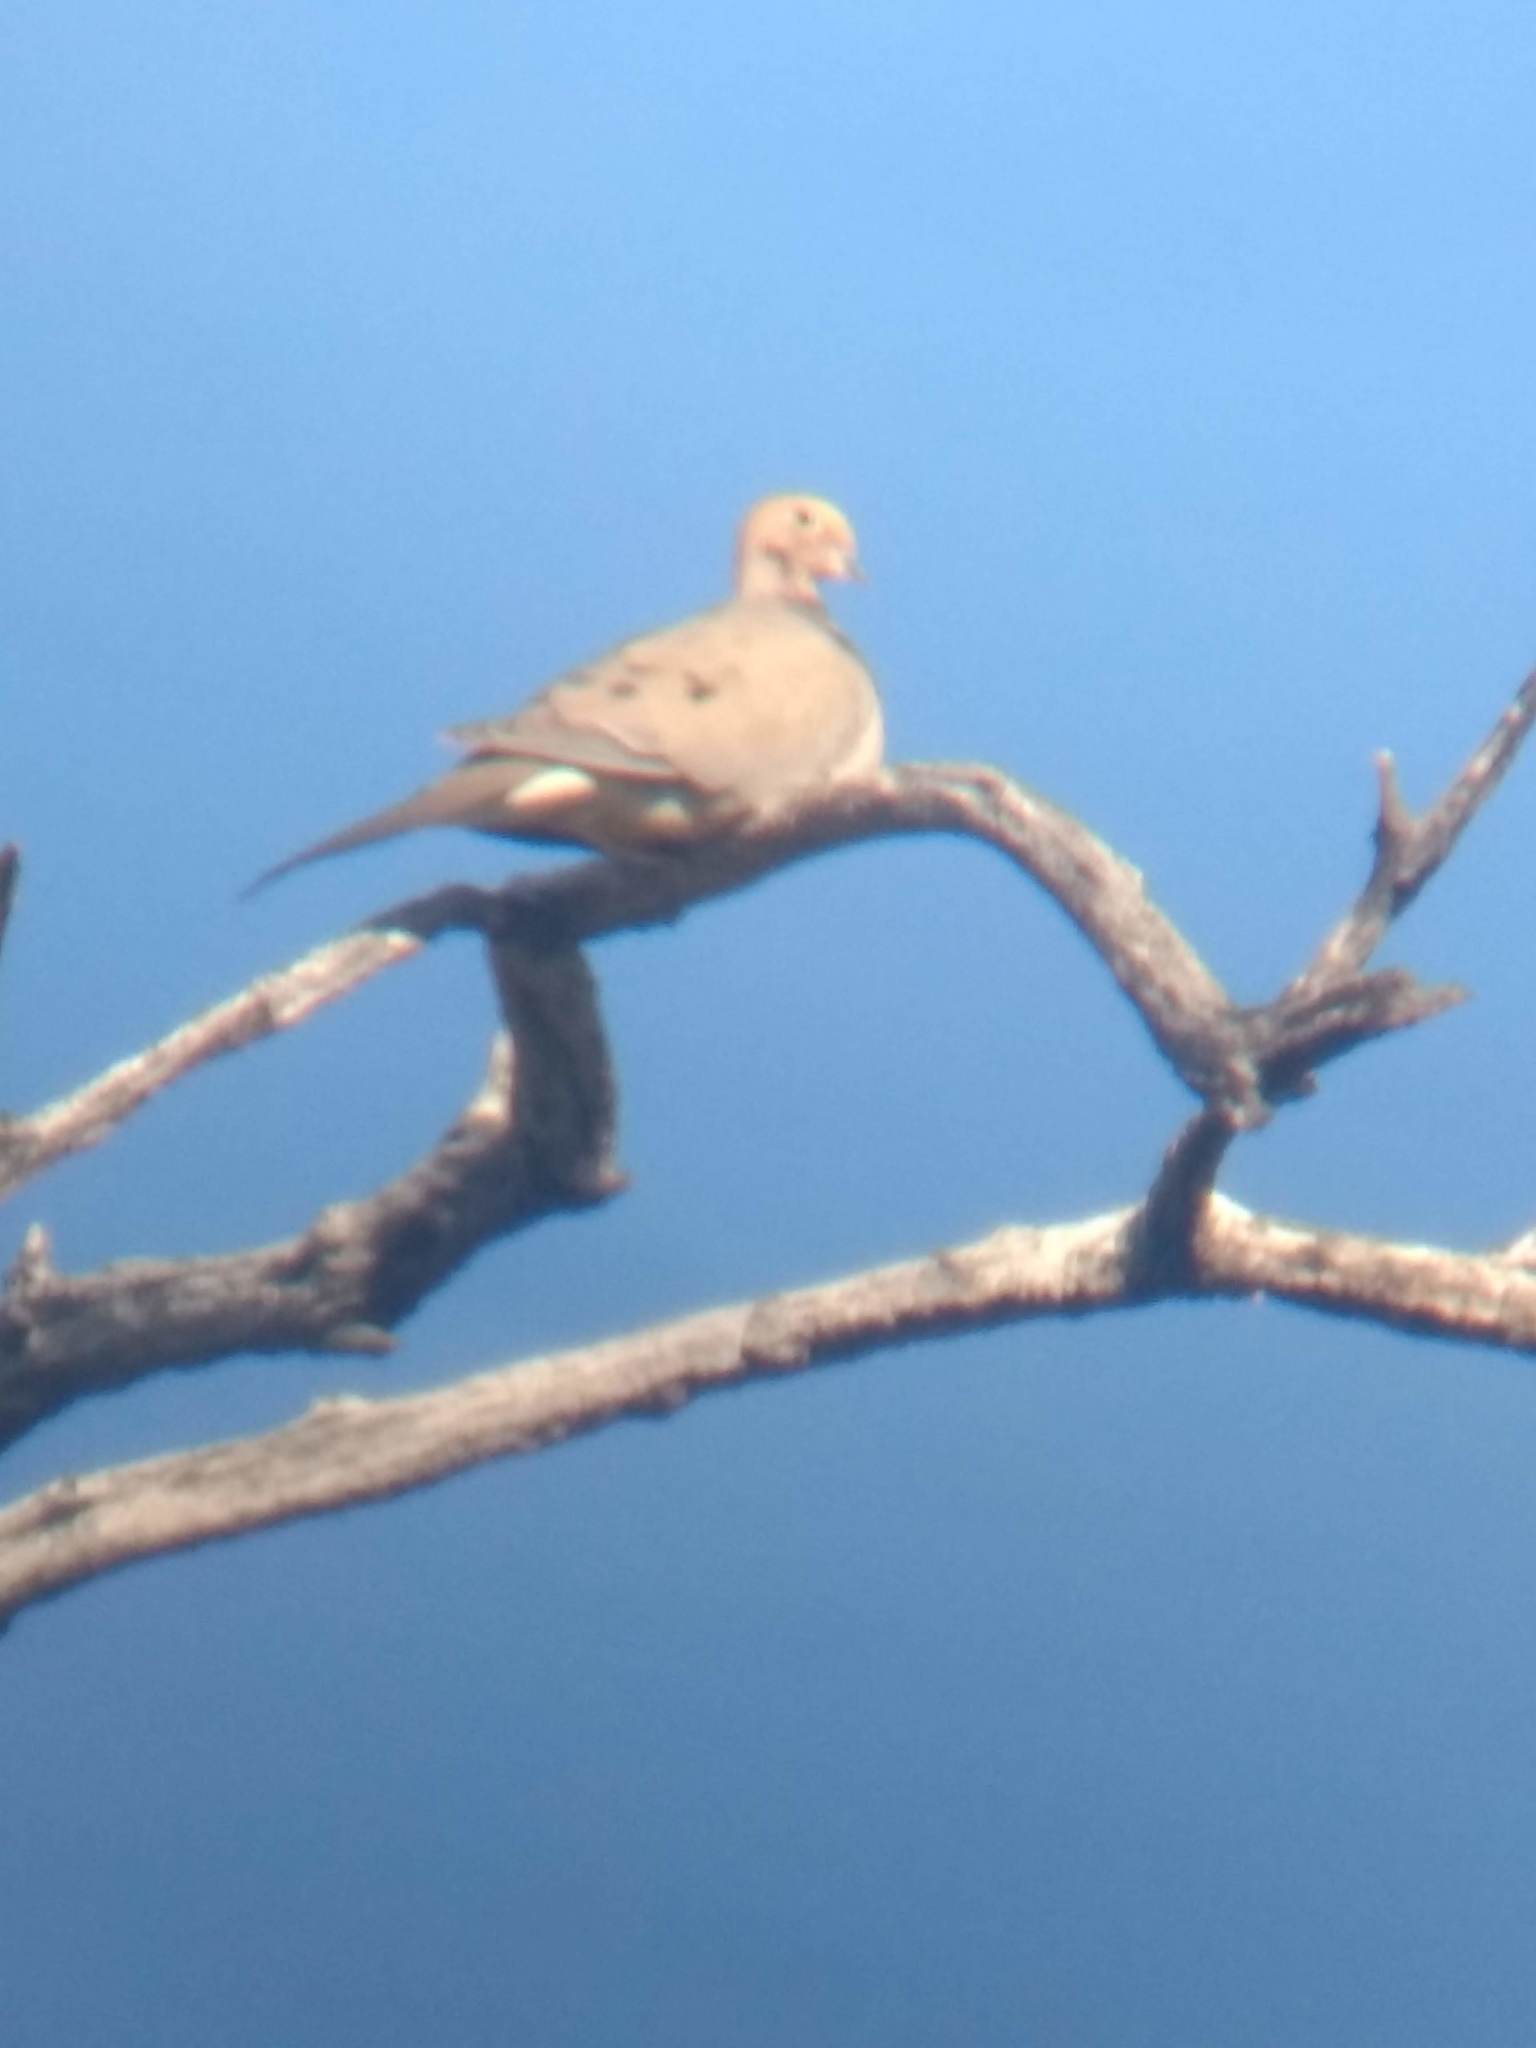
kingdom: Animalia
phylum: Chordata
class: Aves
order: Columbiformes
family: Columbidae
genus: Zenaida
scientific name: Zenaida macroura
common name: Mourning dove
